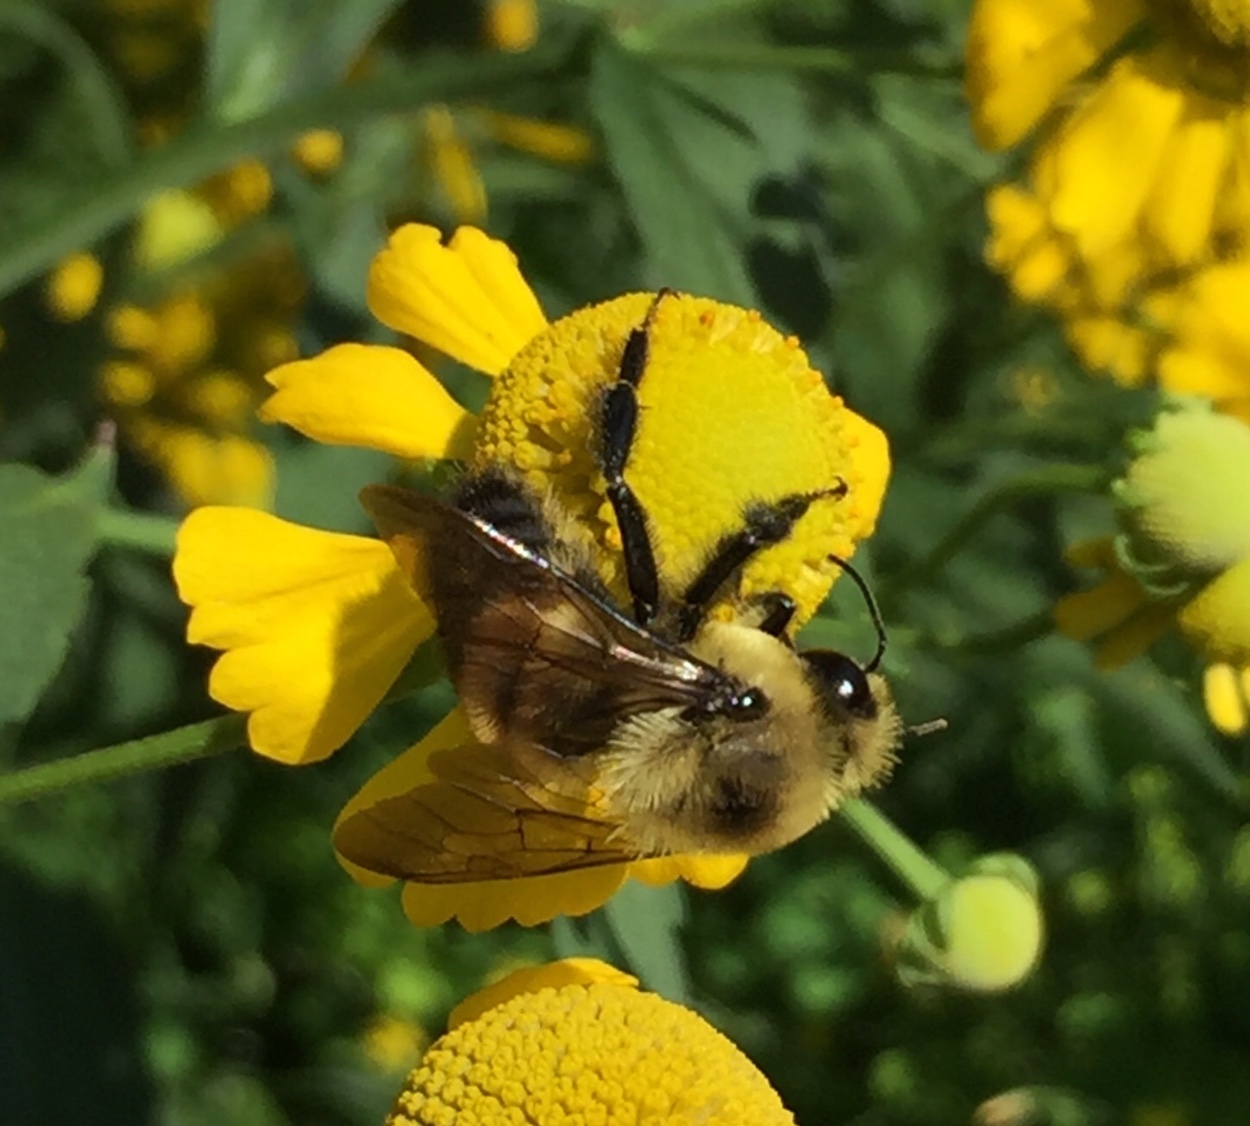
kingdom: Animalia
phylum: Arthropoda
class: Insecta
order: Hymenoptera
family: Apidae
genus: Bombus
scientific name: Bombus griseocollis
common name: Brown-belted bumble bee
